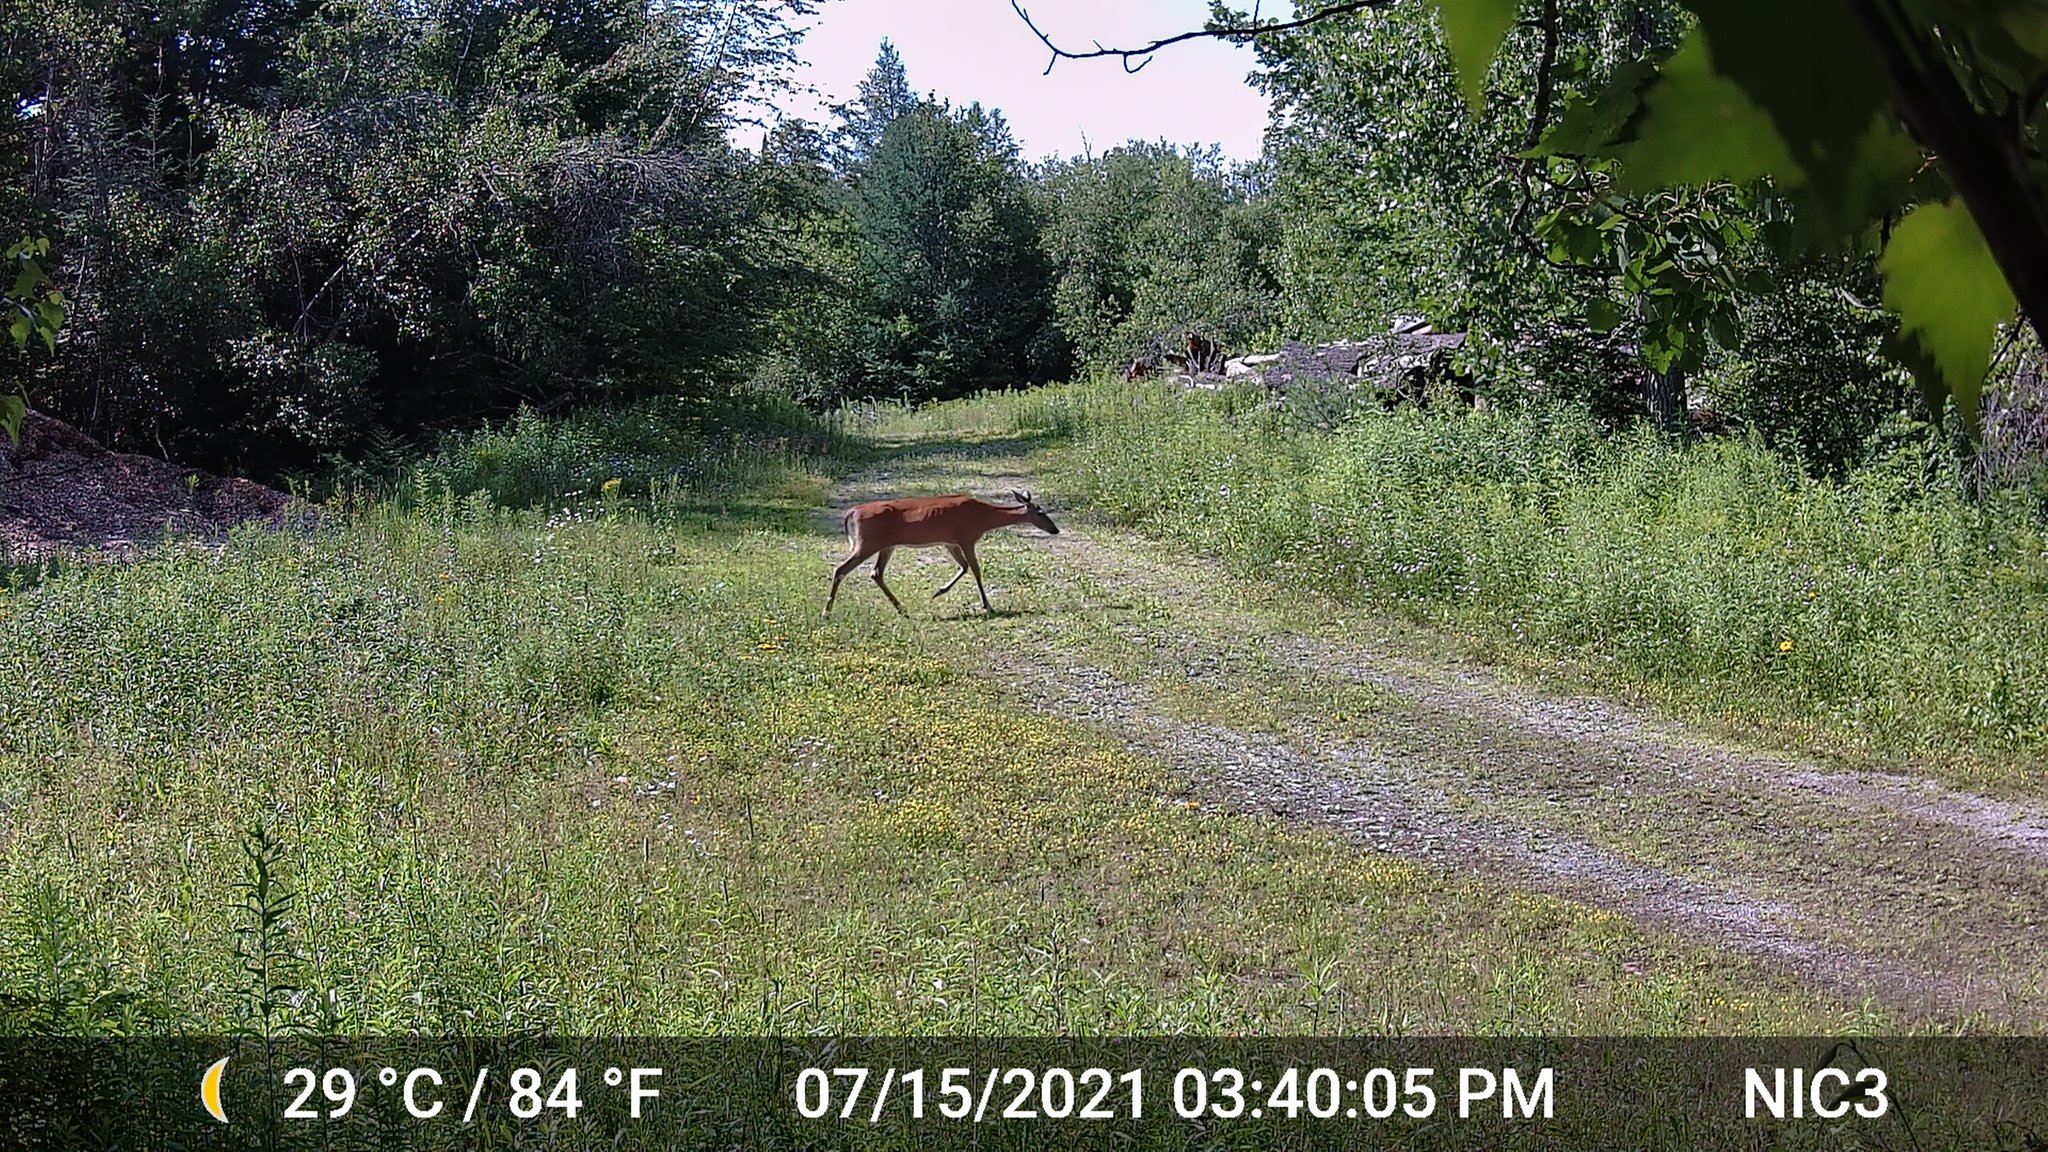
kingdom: Animalia
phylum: Chordata
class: Mammalia
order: Artiodactyla
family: Cervidae
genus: Odocoileus
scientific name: Odocoileus virginianus
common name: White-tailed deer
